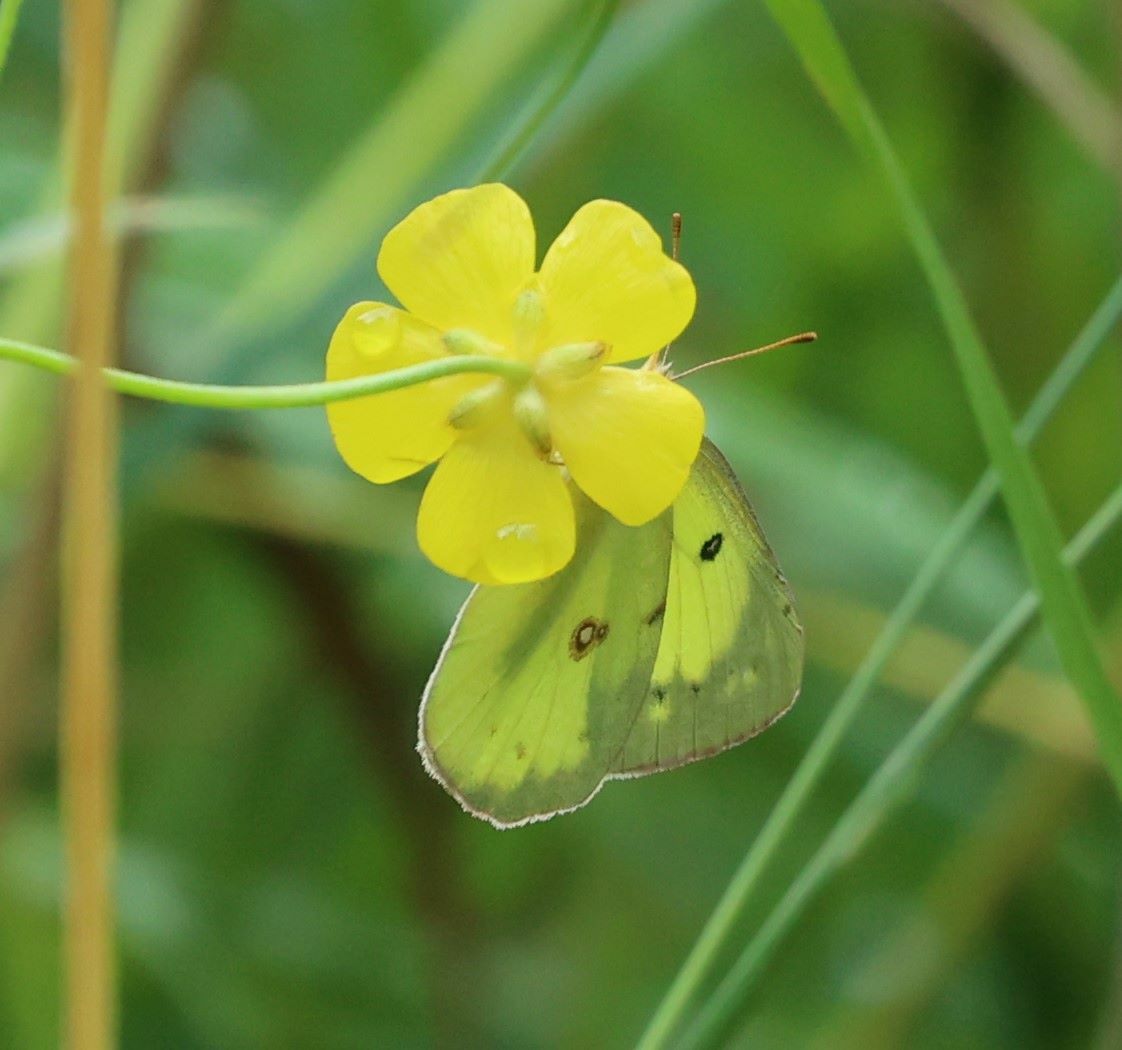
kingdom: Animalia
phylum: Arthropoda
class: Insecta
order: Lepidoptera
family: Pieridae
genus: Colias
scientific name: Colias philodice
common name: Clouded sulphur
